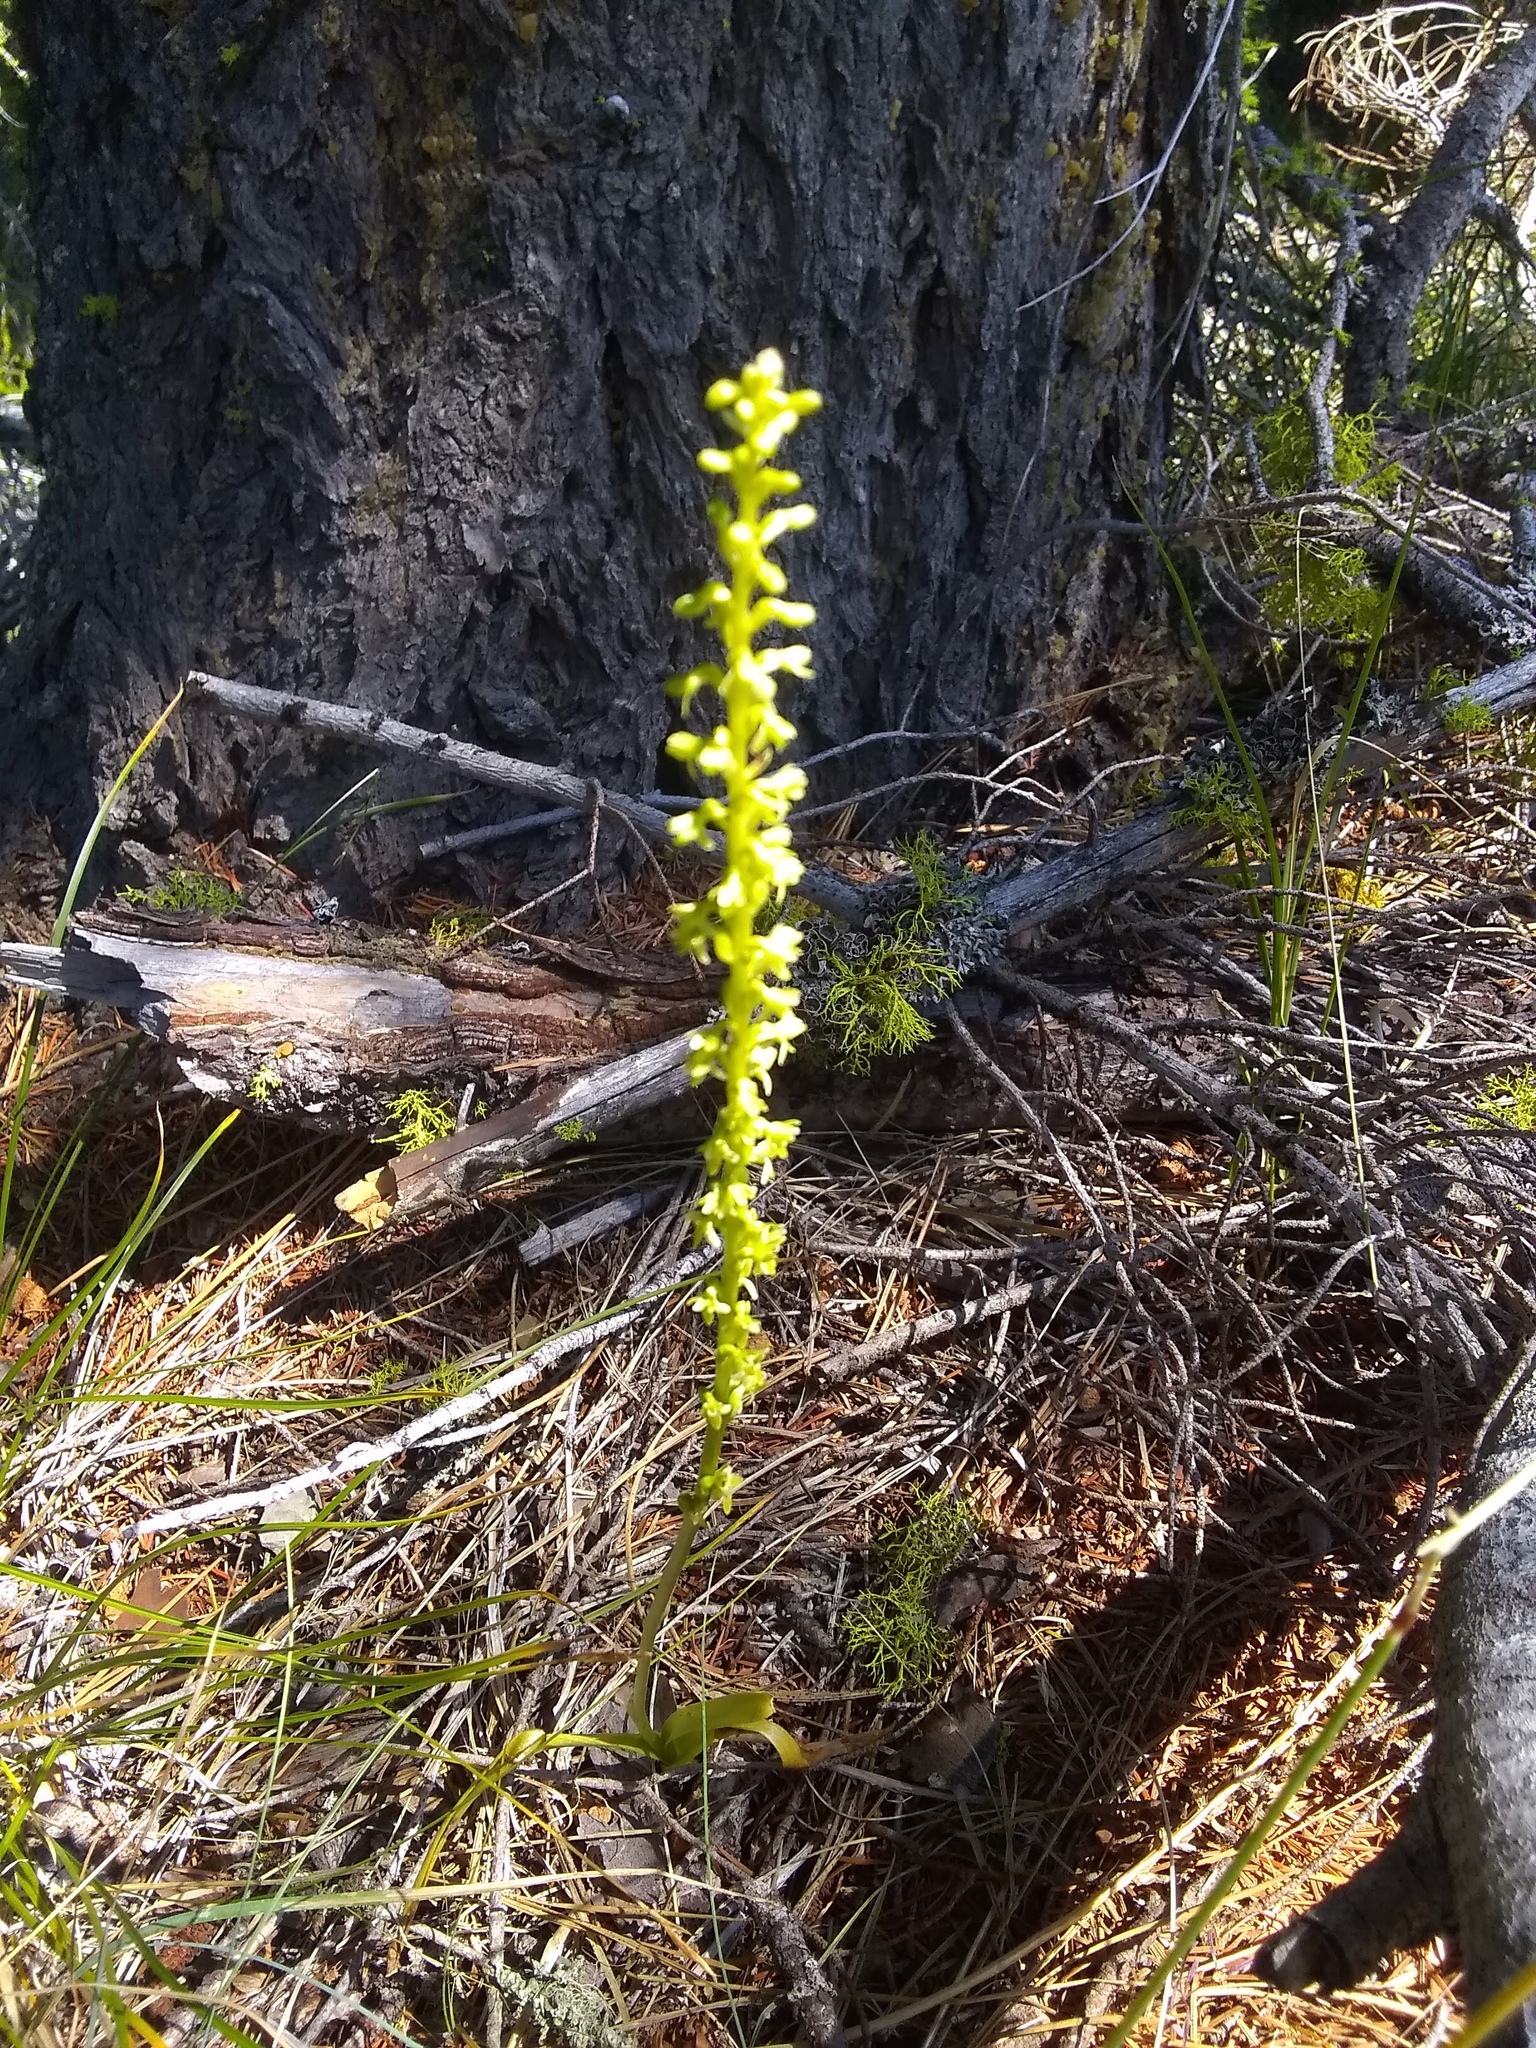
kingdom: Plantae
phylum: Tracheophyta
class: Liliopsida
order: Asparagales
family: Orchidaceae
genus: Platanthera
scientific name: Platanthera unalascensis
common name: Alaska bog orchid
